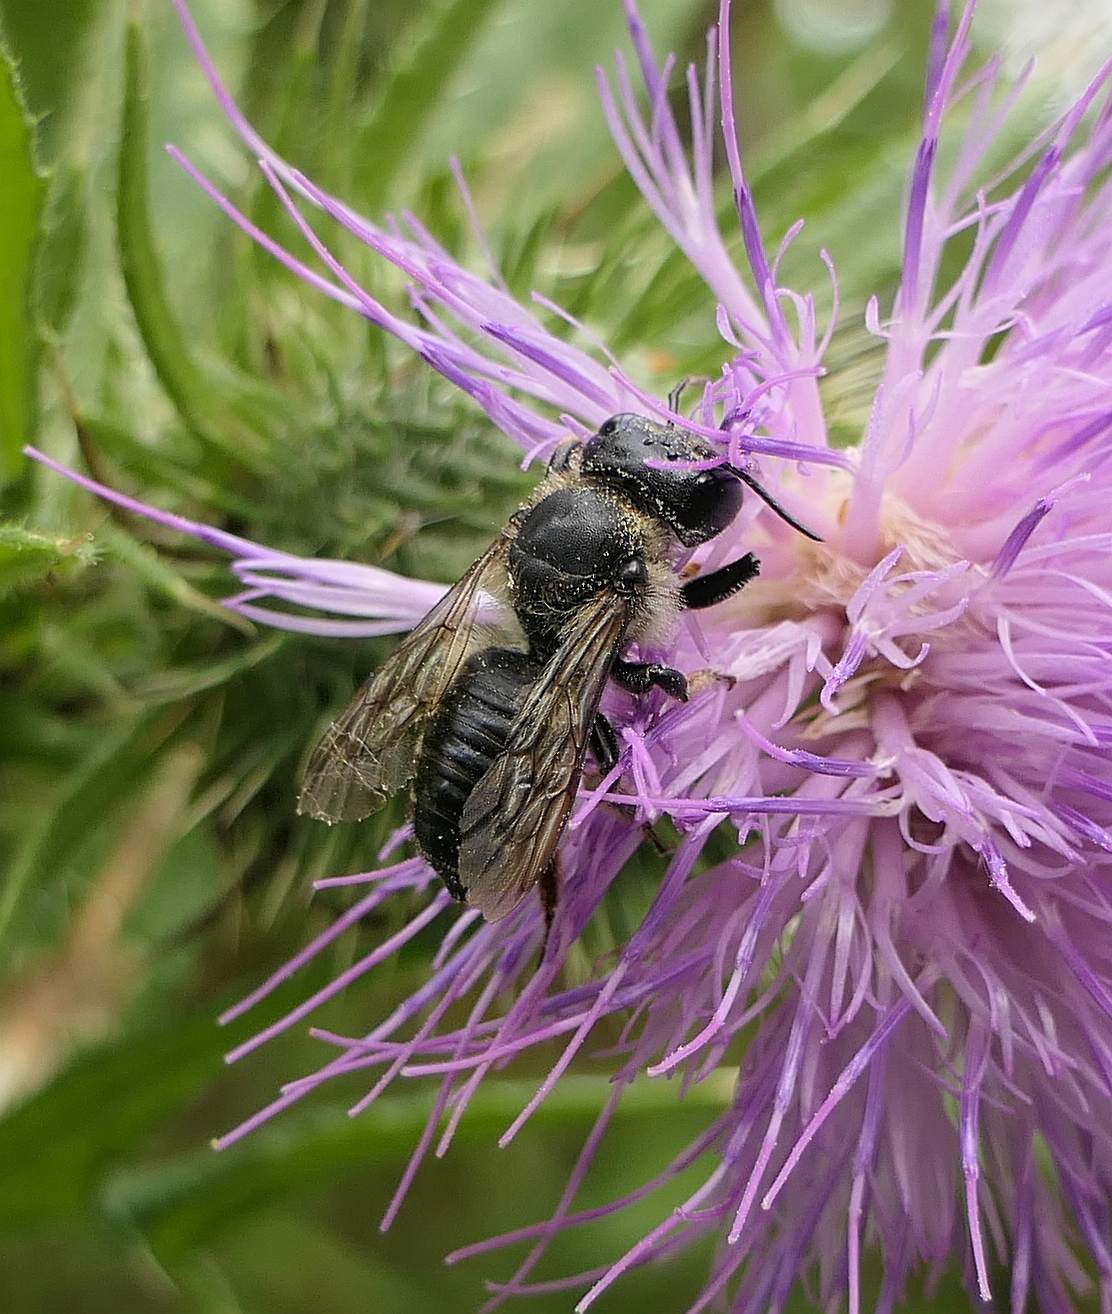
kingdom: Animalia
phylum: Arthropoda
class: Insecta
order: Hymenoptera
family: Megachilidae
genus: Megachile
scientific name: Megachile inermis
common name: Unarmed leafcutter bee
